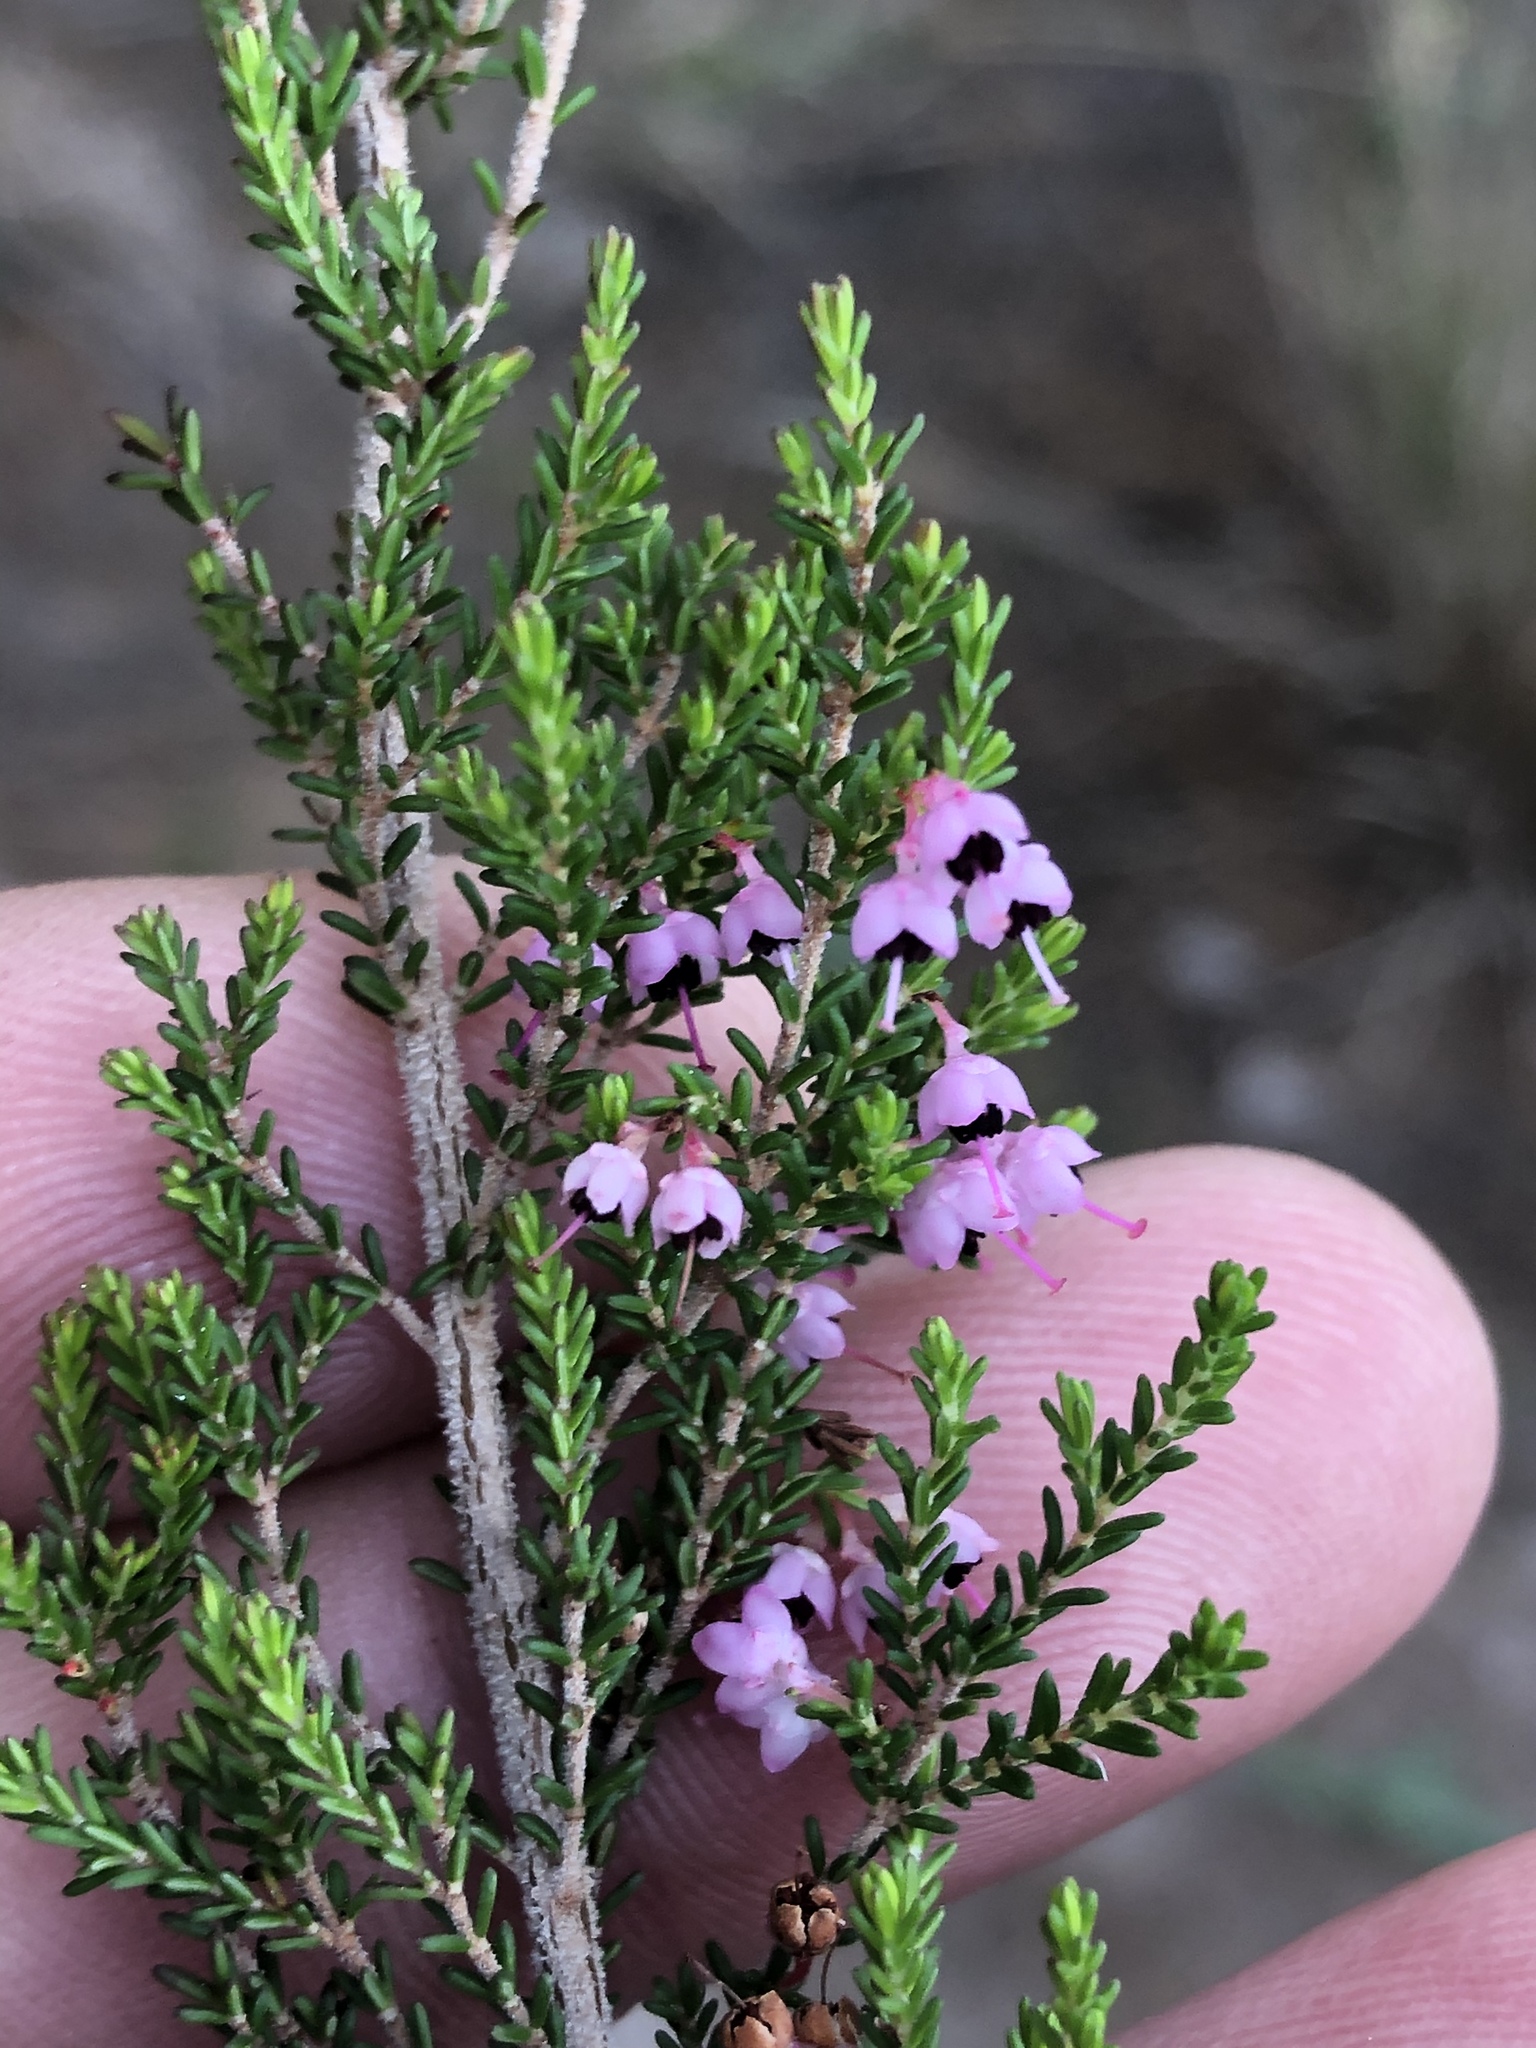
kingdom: Plantae
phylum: Tracheophyta
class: Magnoliopsida
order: Ericales
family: Ericaceae
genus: Erica
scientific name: Erica sparsa
